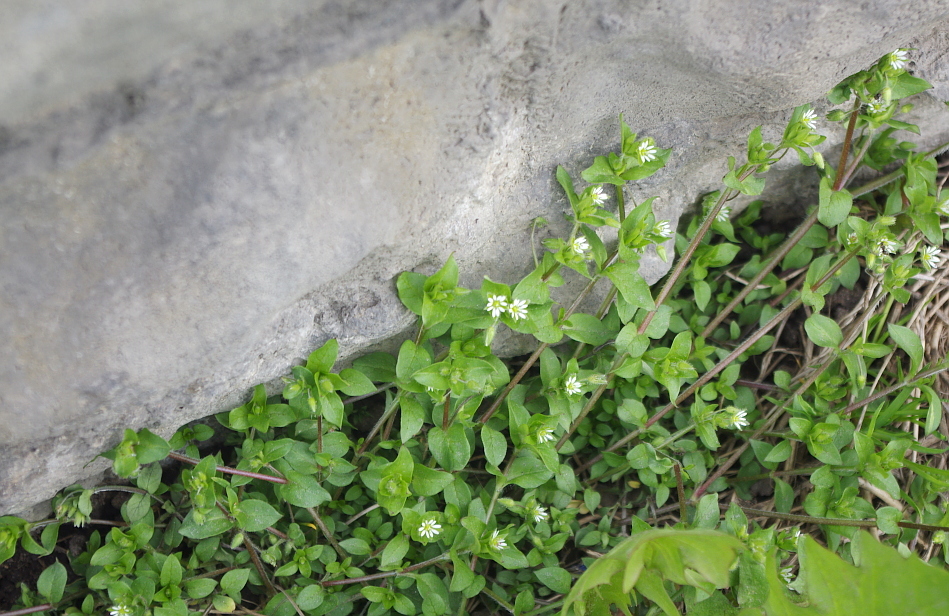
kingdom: Plantae
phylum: Tracheophyta
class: Magnoliopsida
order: Caryophyllales
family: Caryophyllaceae
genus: Stellaria
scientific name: Stellaria media
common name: Common chickweed
